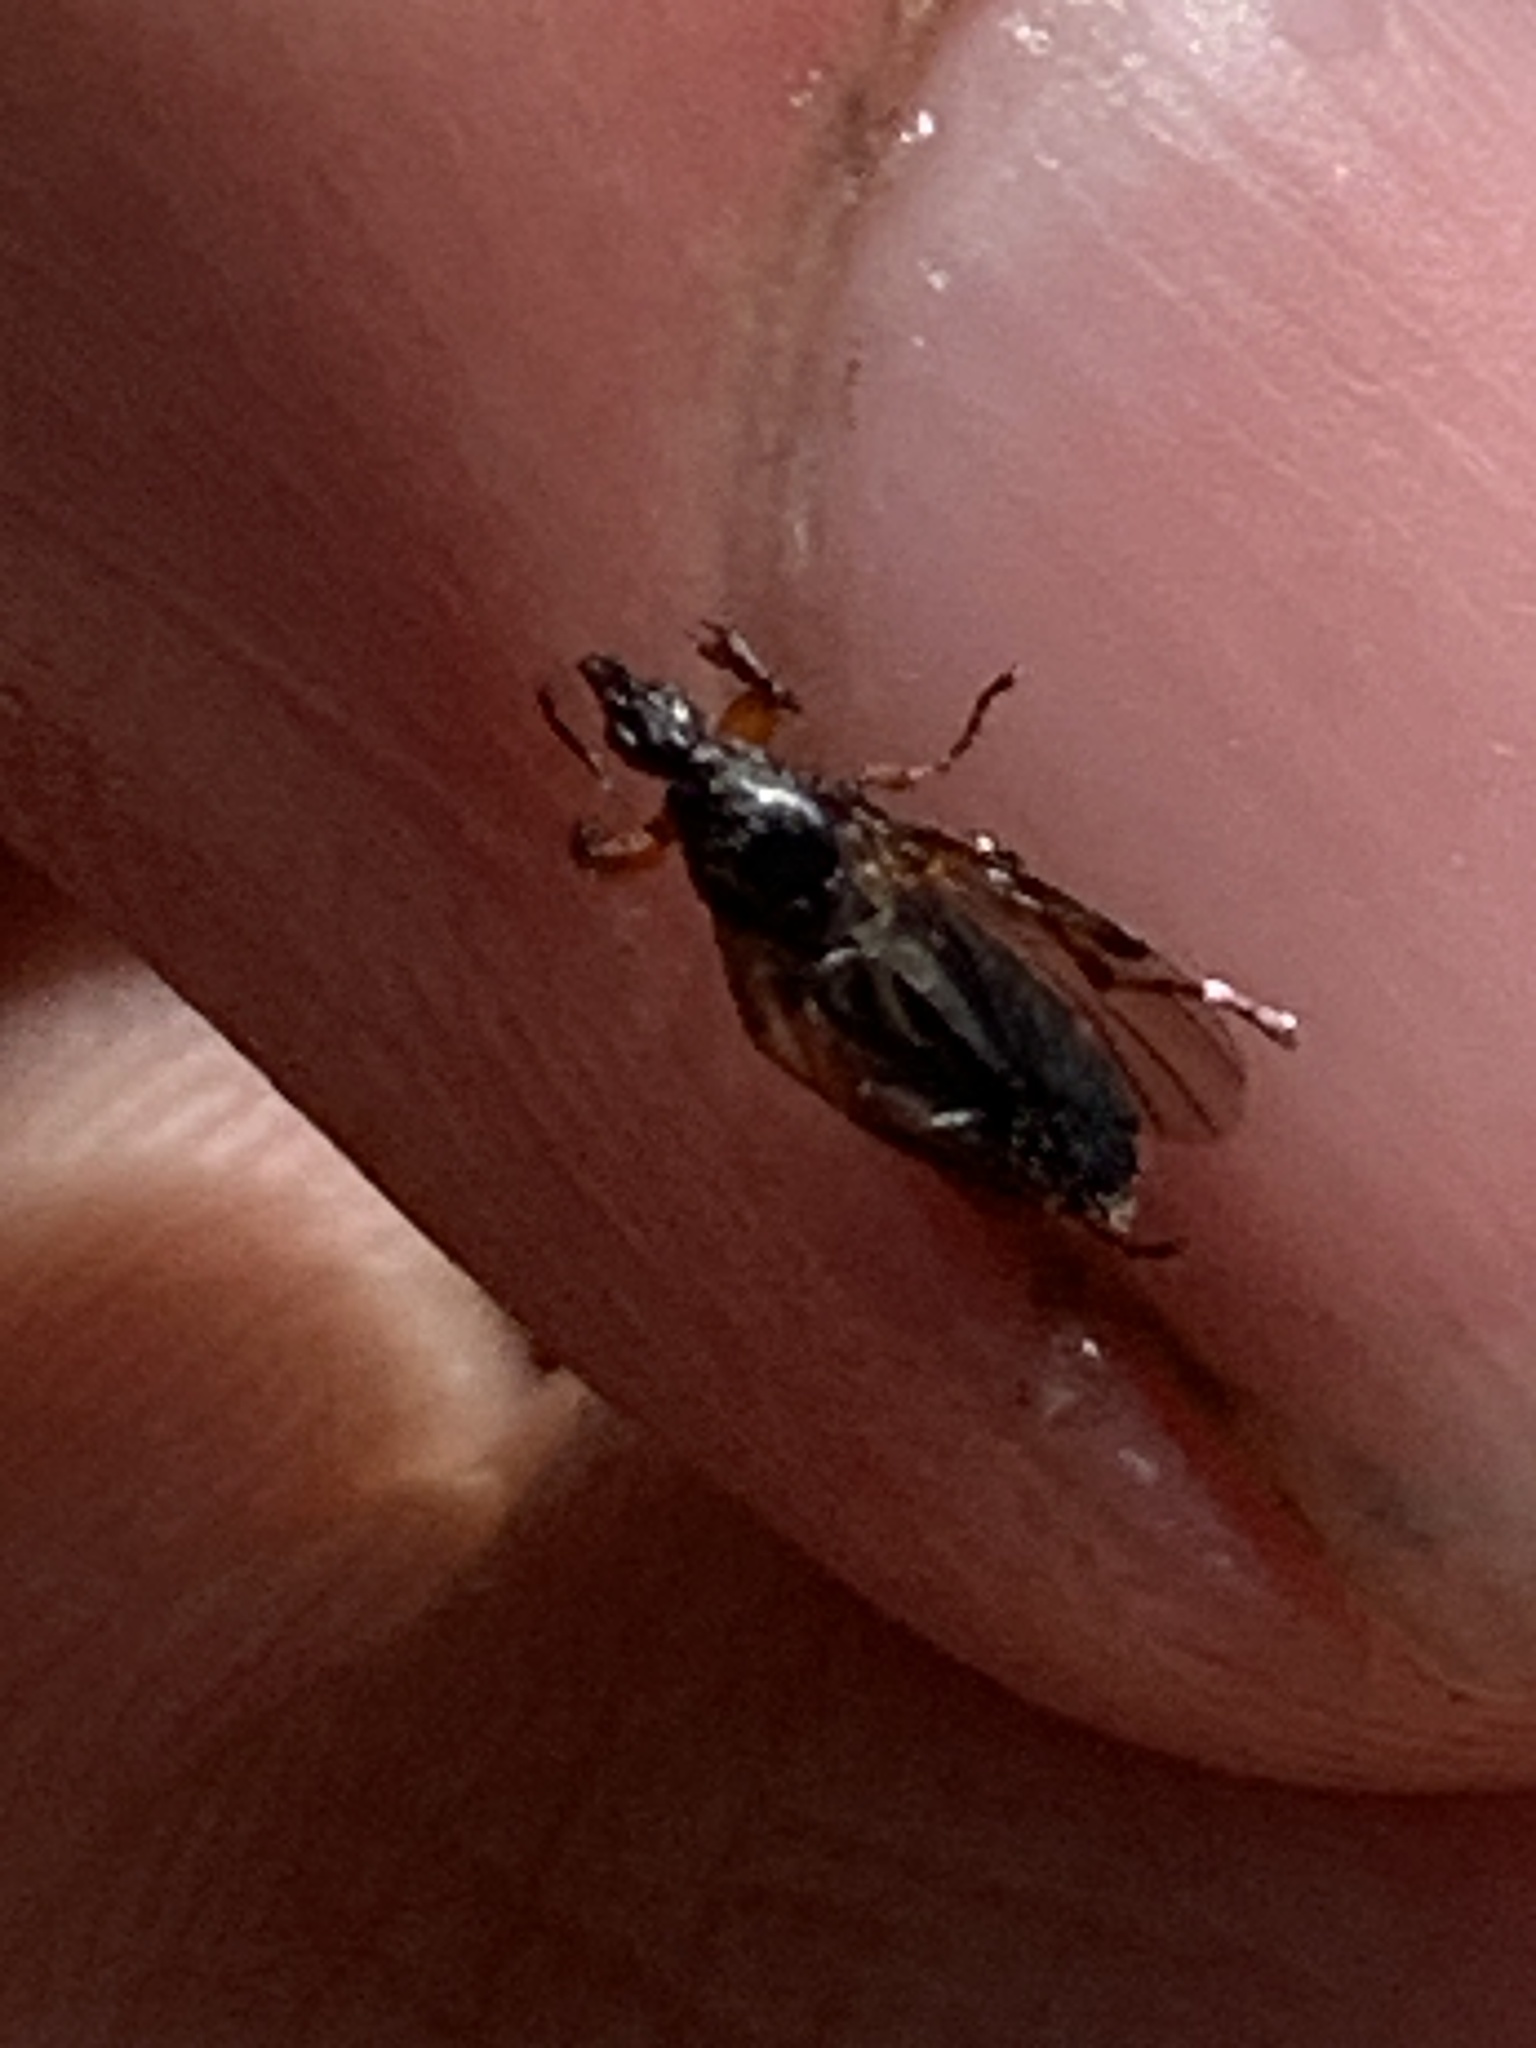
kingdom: Animalia
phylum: Arthropoda
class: Insecta
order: Diptera
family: Bibionidae
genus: Bibio
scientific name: Bibio
